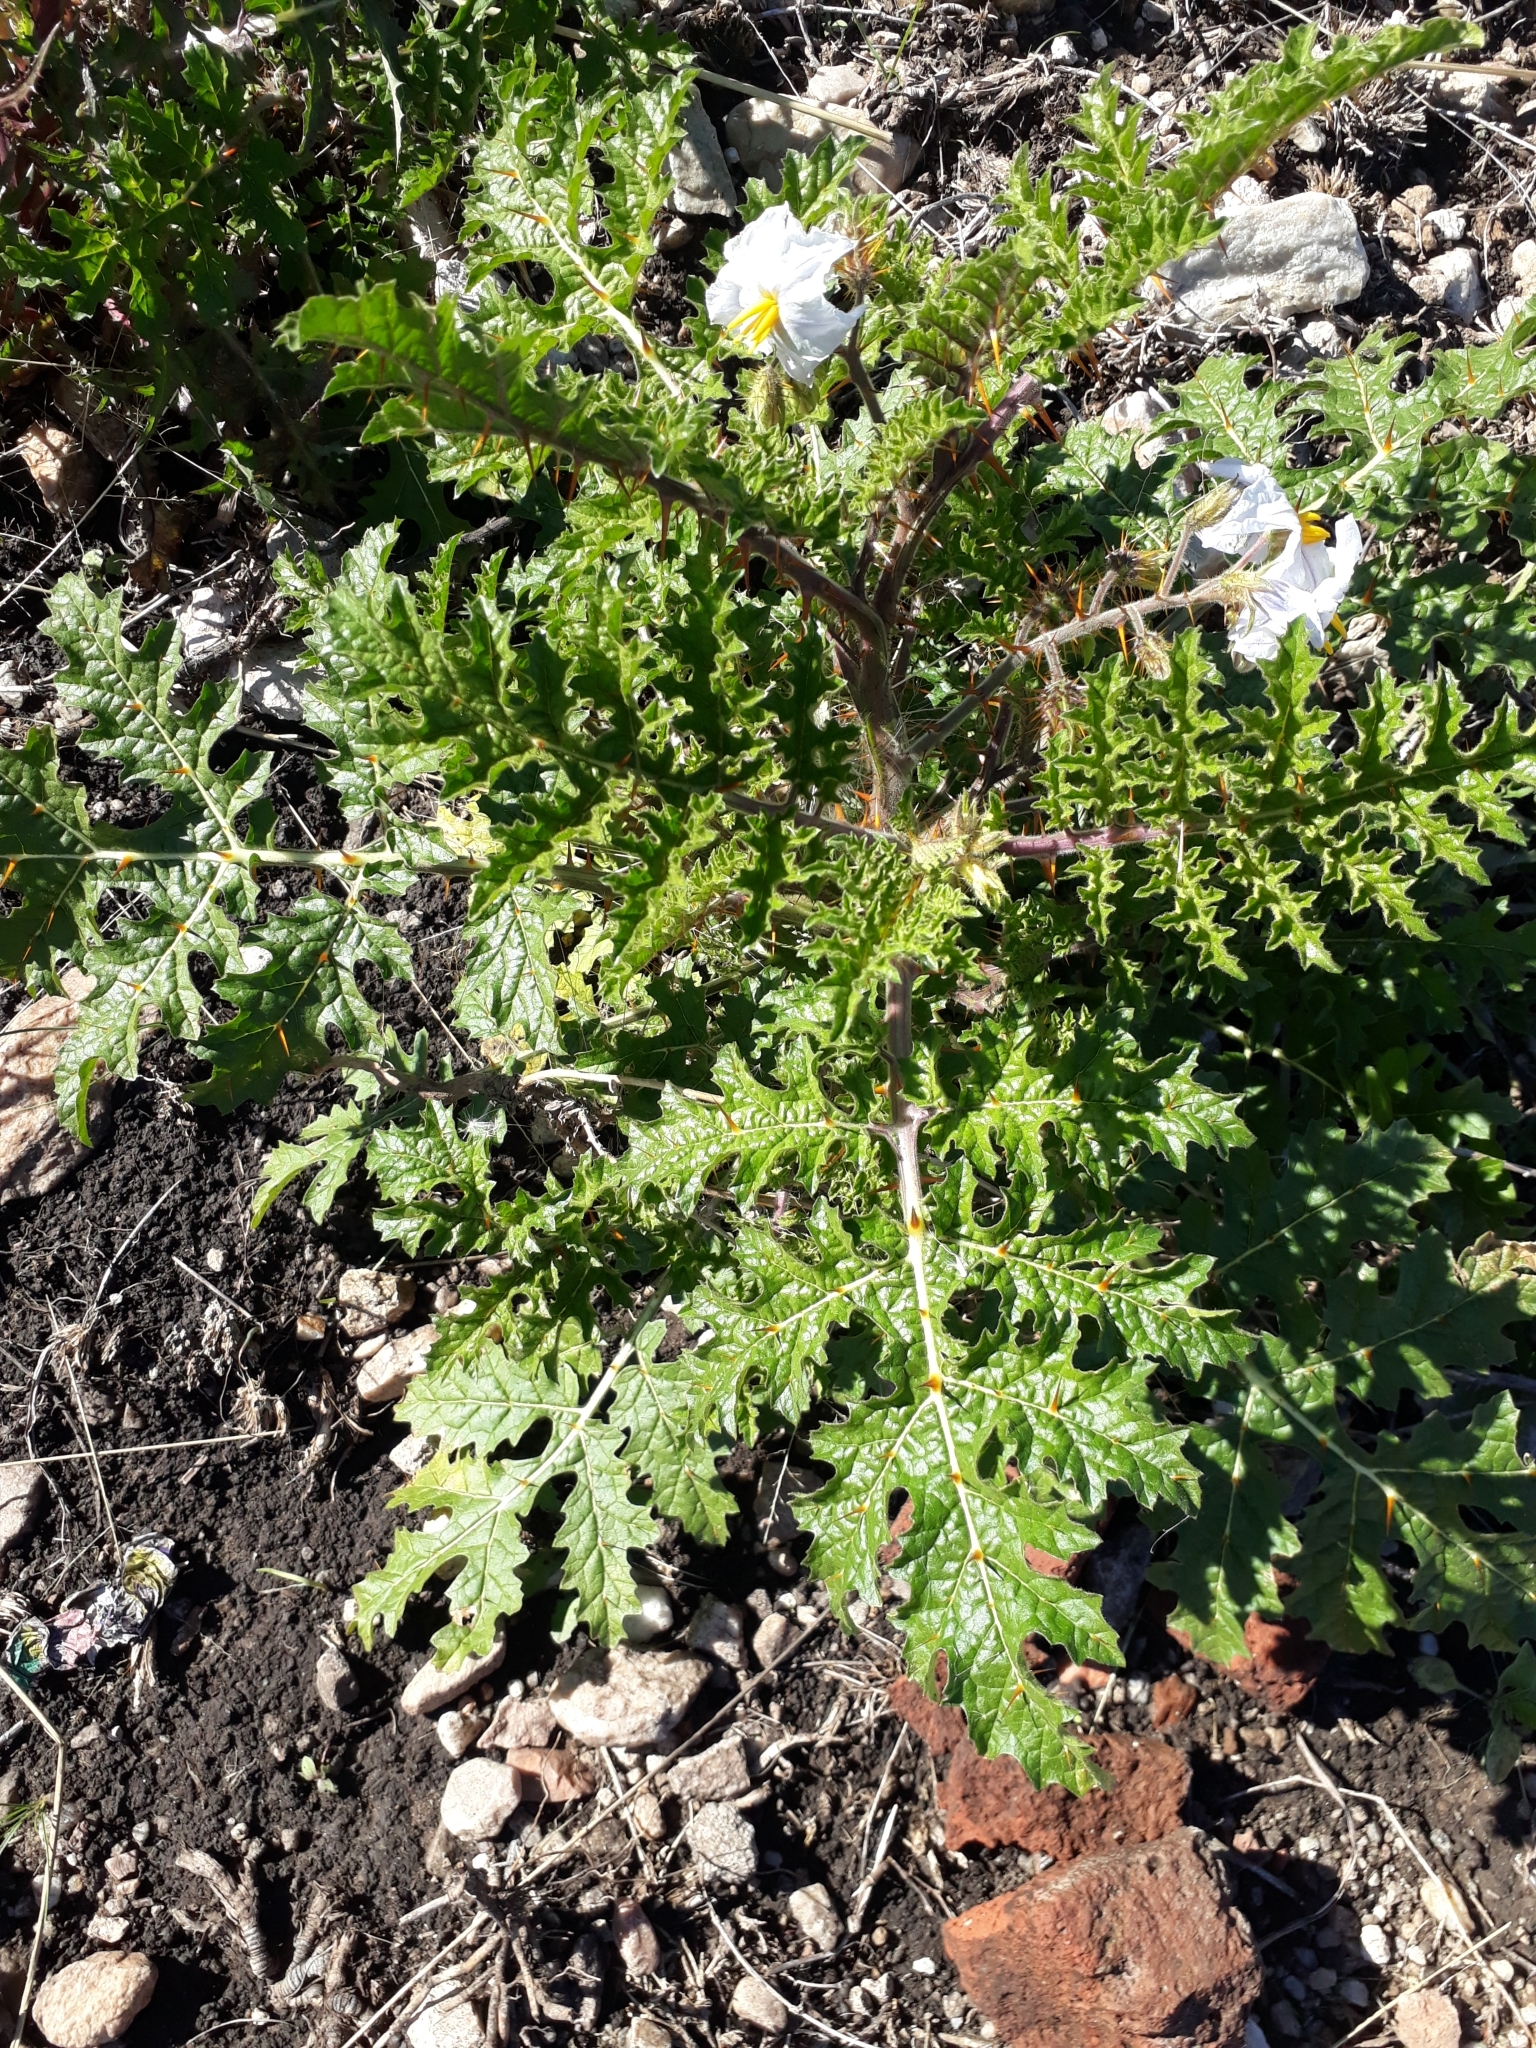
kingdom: Plantae
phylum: Tracheophyta
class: Magnoliopsida
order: Solanales
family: Solanaceae
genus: Solanum
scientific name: Solanum sisymbriifolium
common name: Red buffalo-bur
